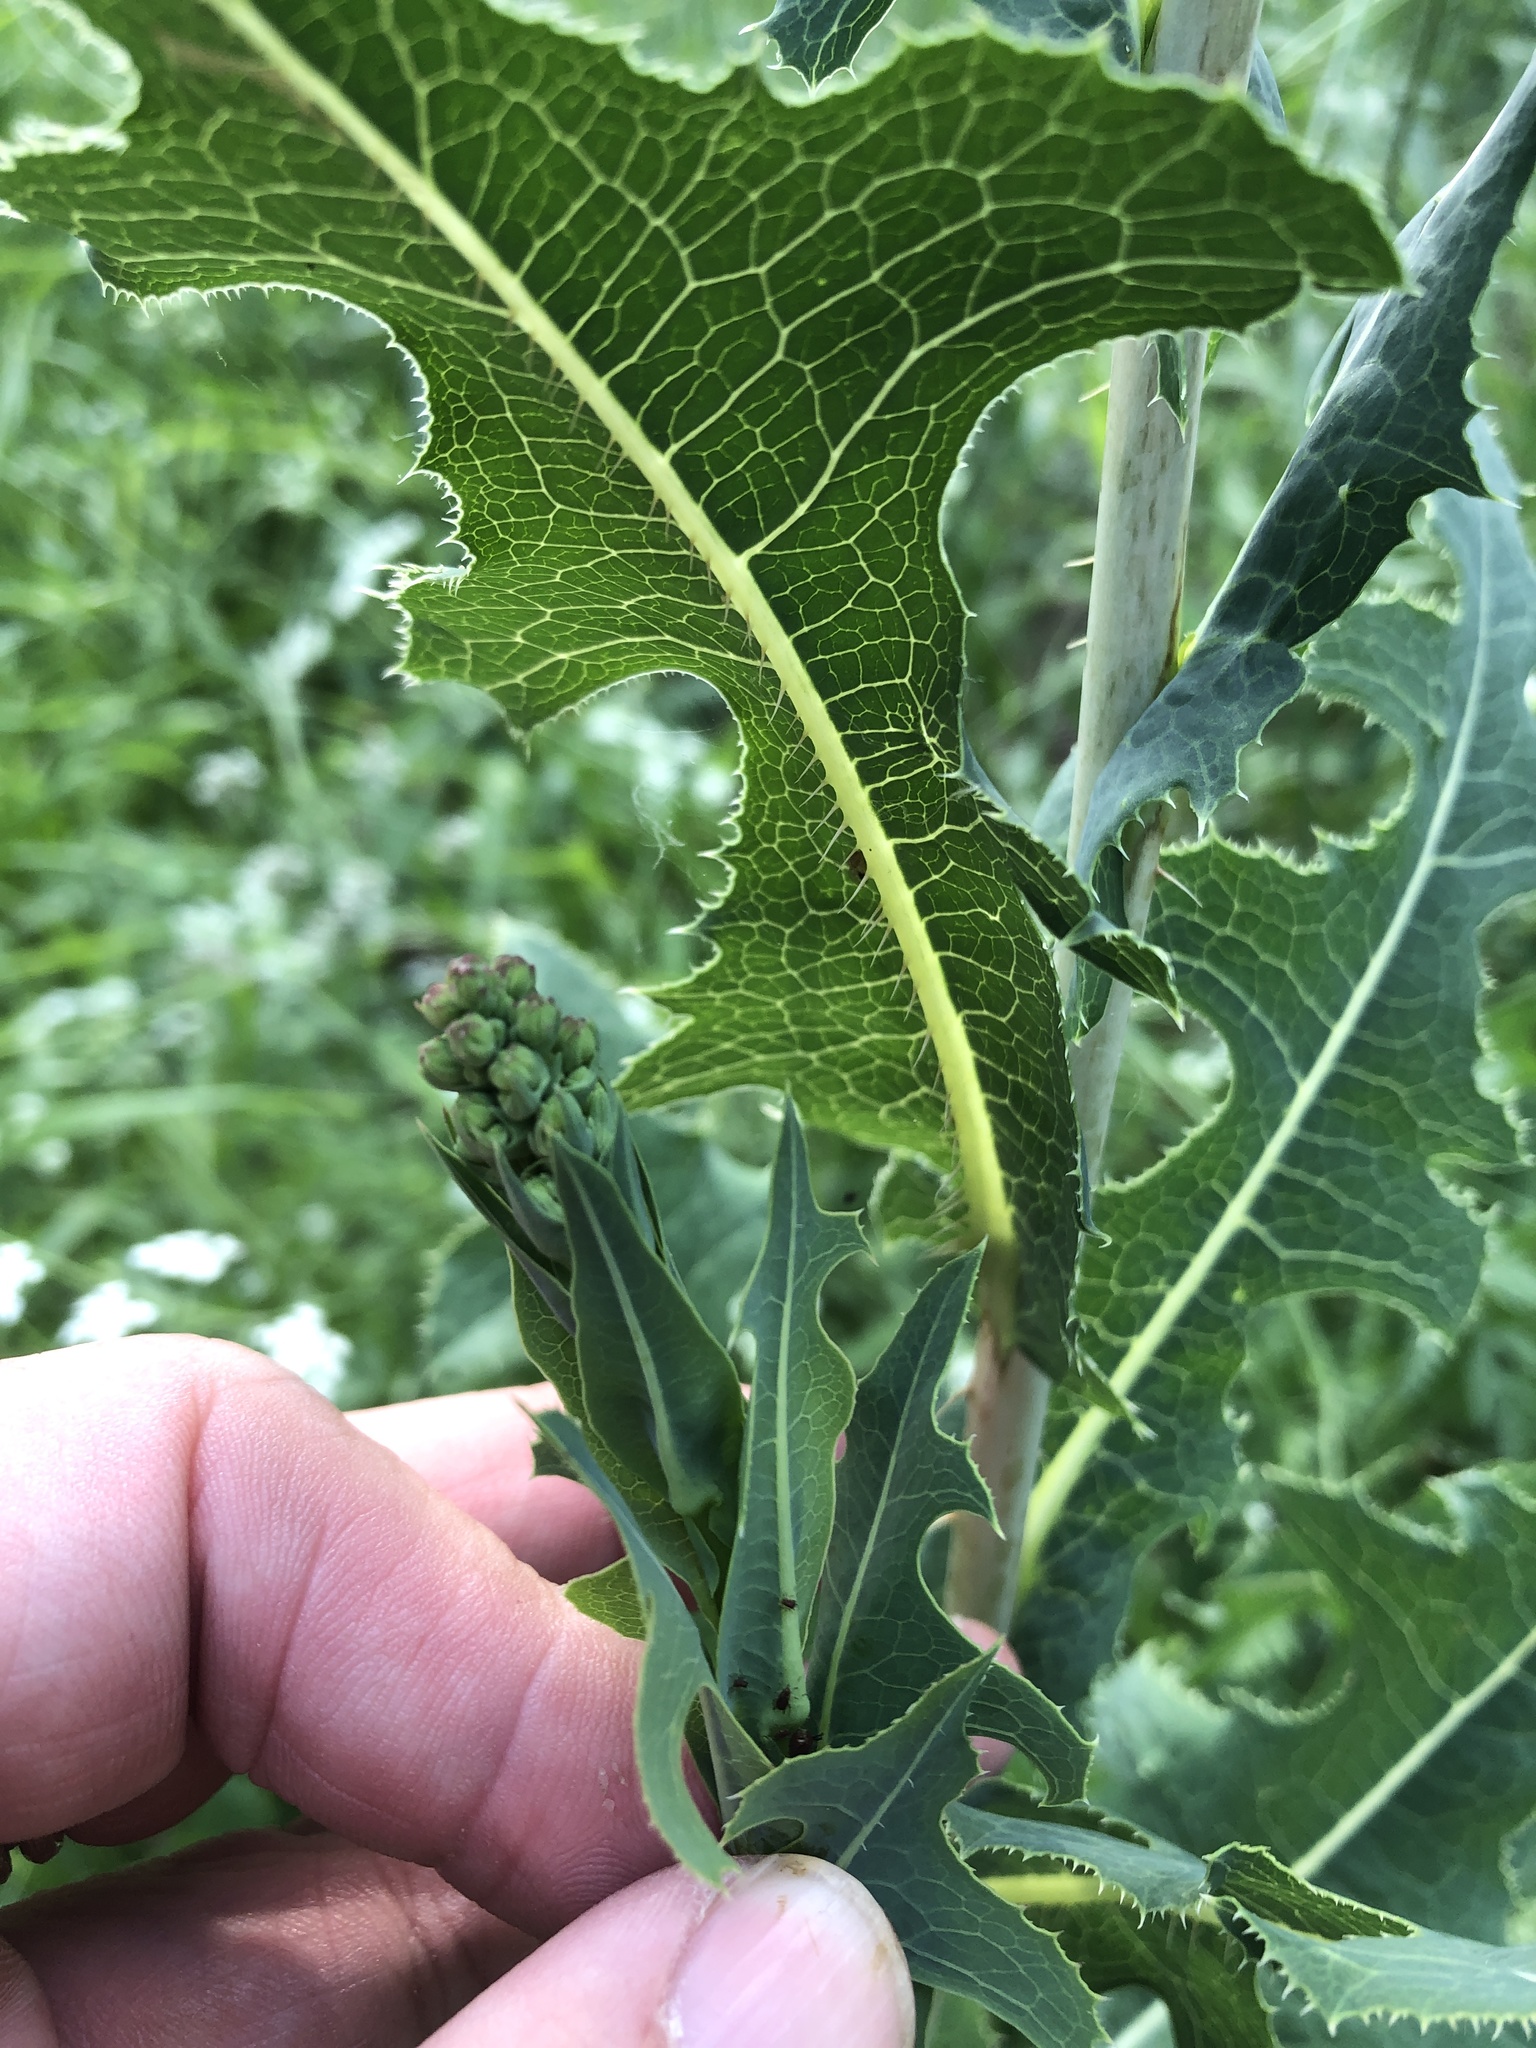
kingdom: Plantae
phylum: Tracheophyta
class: Magnoliopsida
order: Asterales
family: Asteraceae
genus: Lactuca
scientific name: Lactuca serriola
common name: Prickly lettuce
